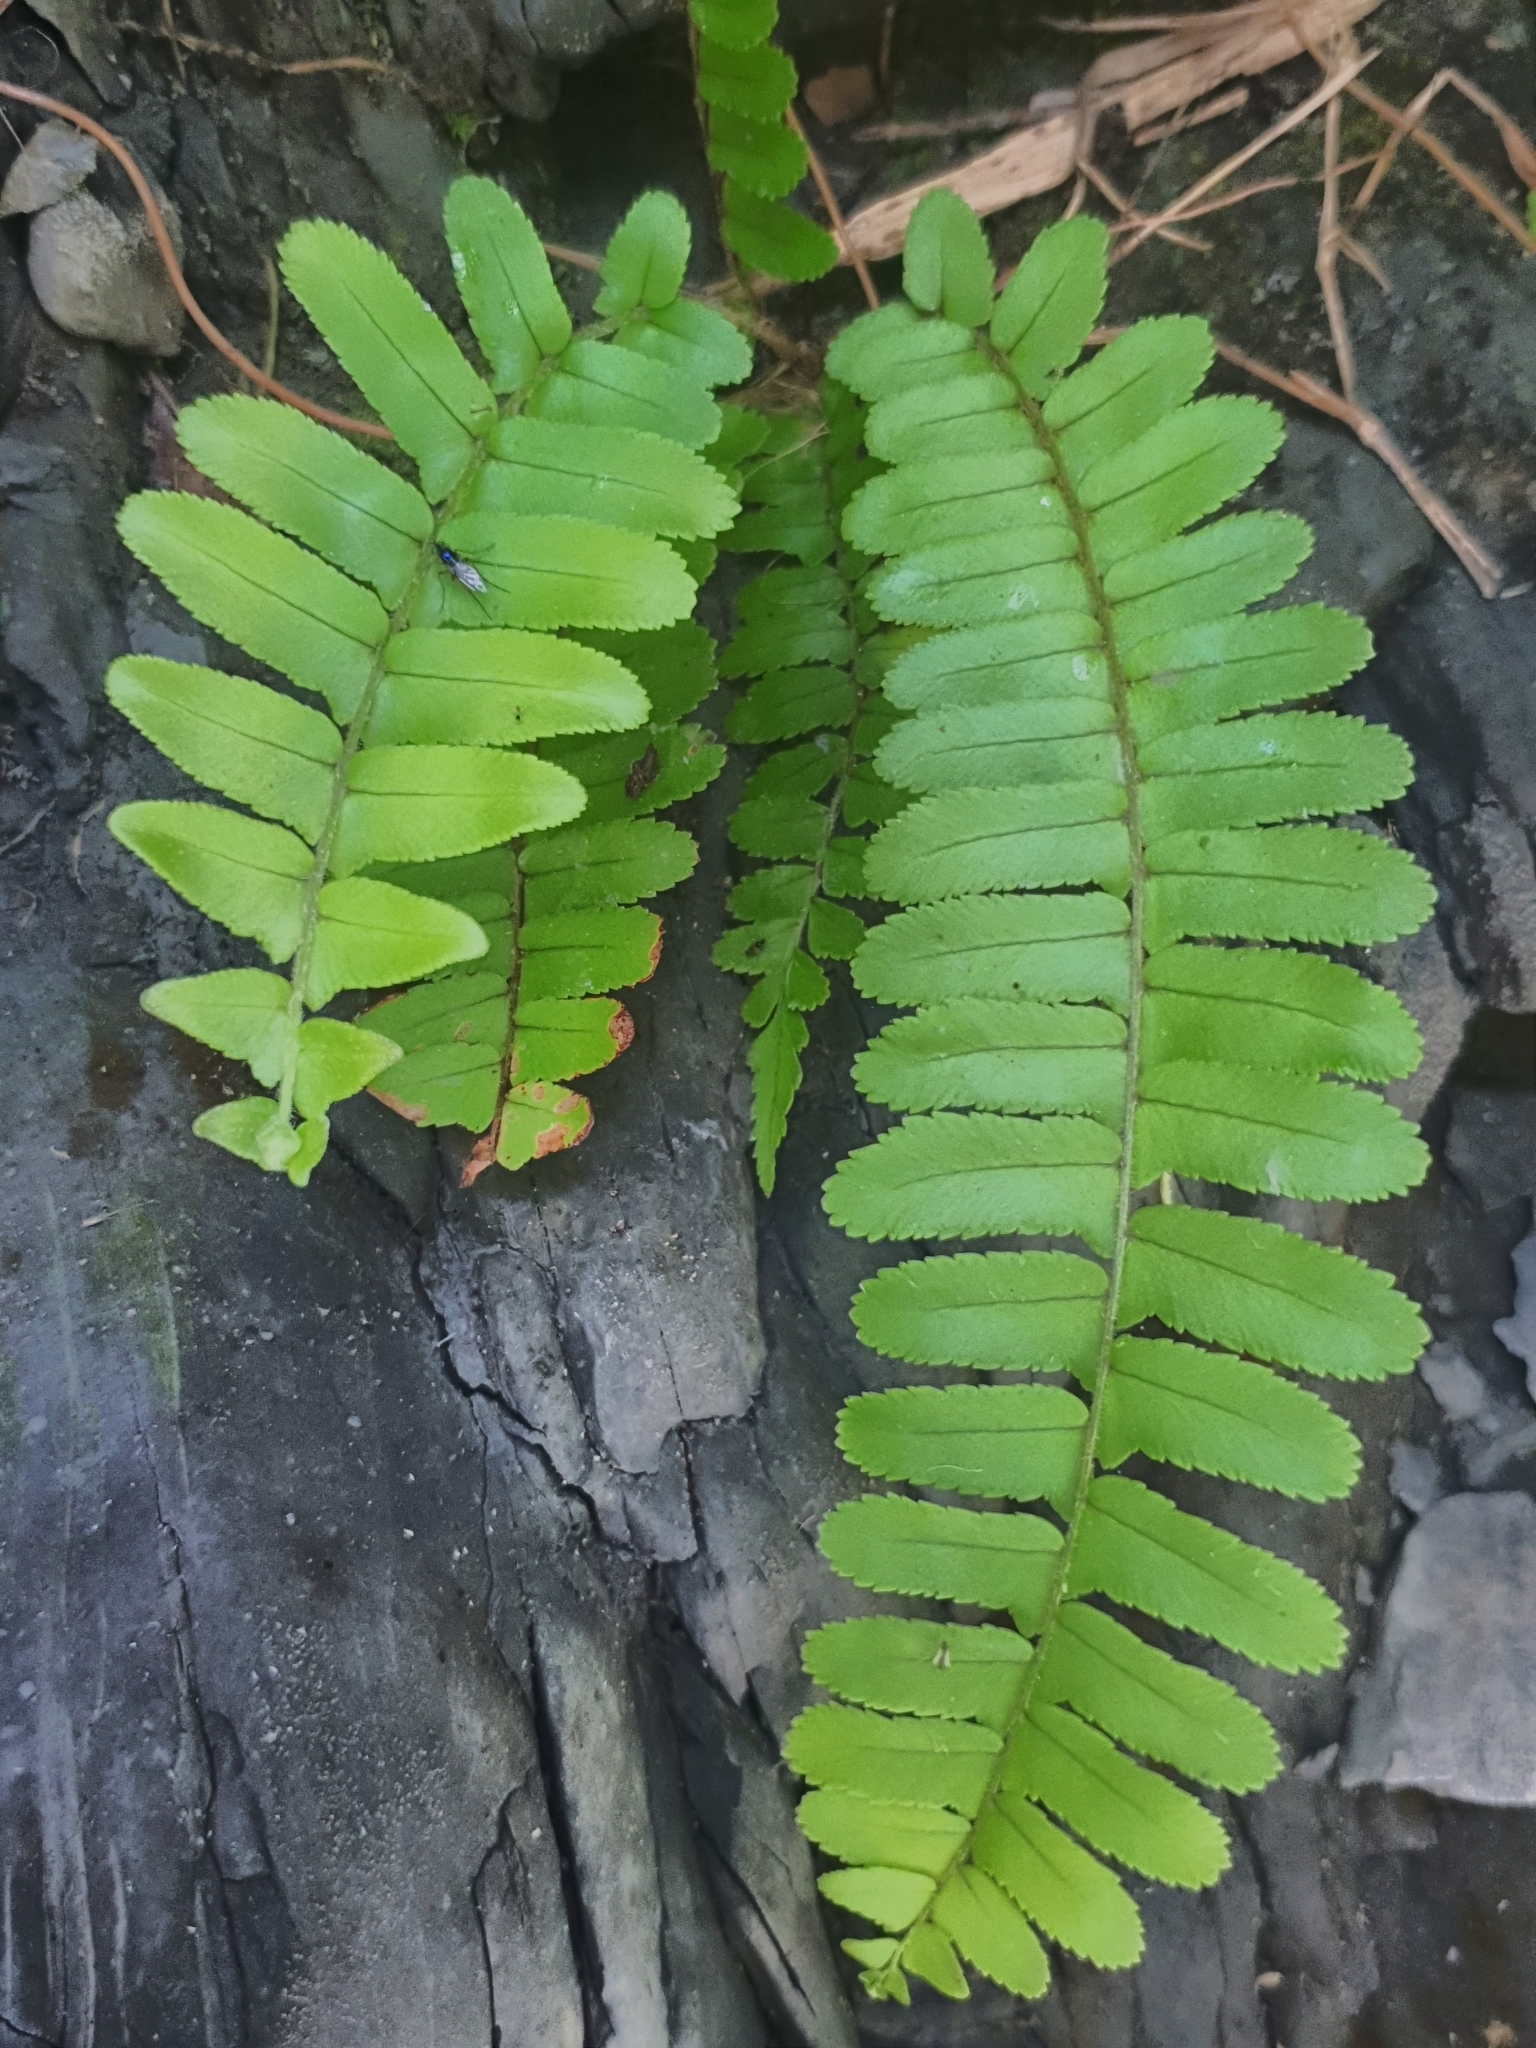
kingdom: Plantae
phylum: Tracheophyta
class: Polypodiopsida
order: Polypodiales
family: Nephrolepidaceae
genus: Nephrolepis
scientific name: Nephrolepis cordifolia
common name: Narrow swordfern
